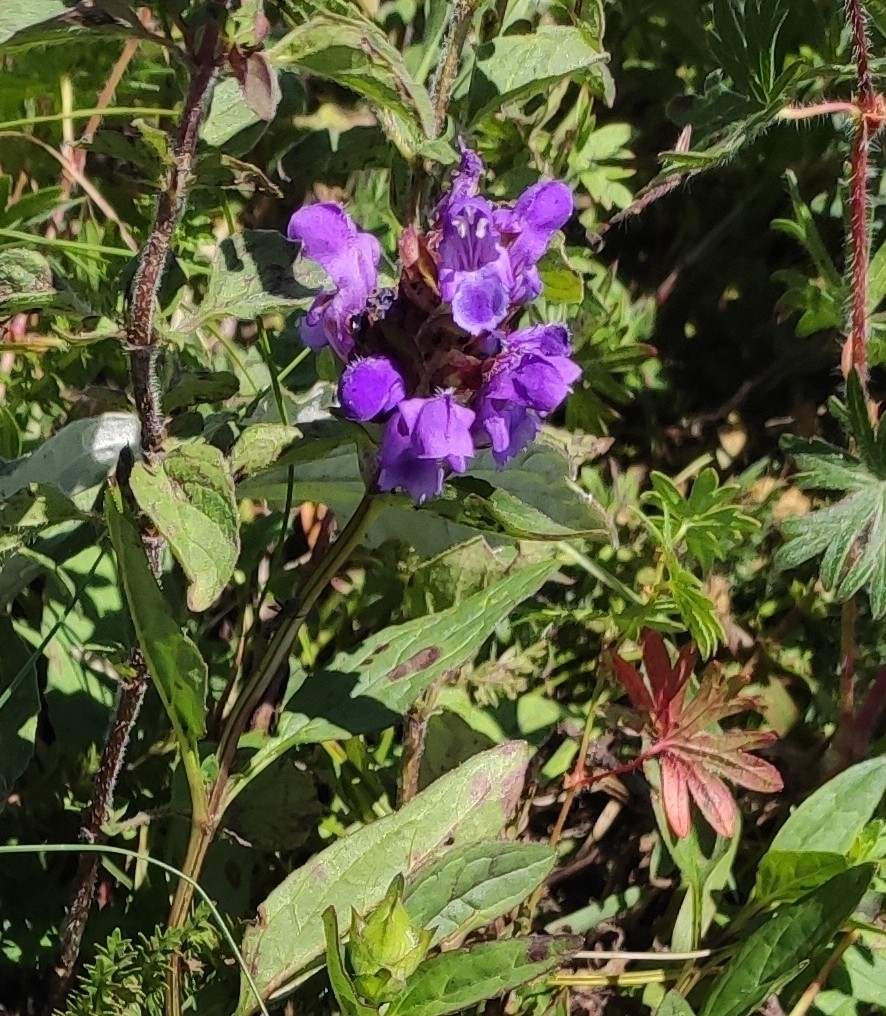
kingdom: Plantae
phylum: Tracheophyta
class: Magnoliopsida
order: Lamiales
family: Lamiaceae
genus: Prunella
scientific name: Prunella vulgaris
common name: Heal-all
